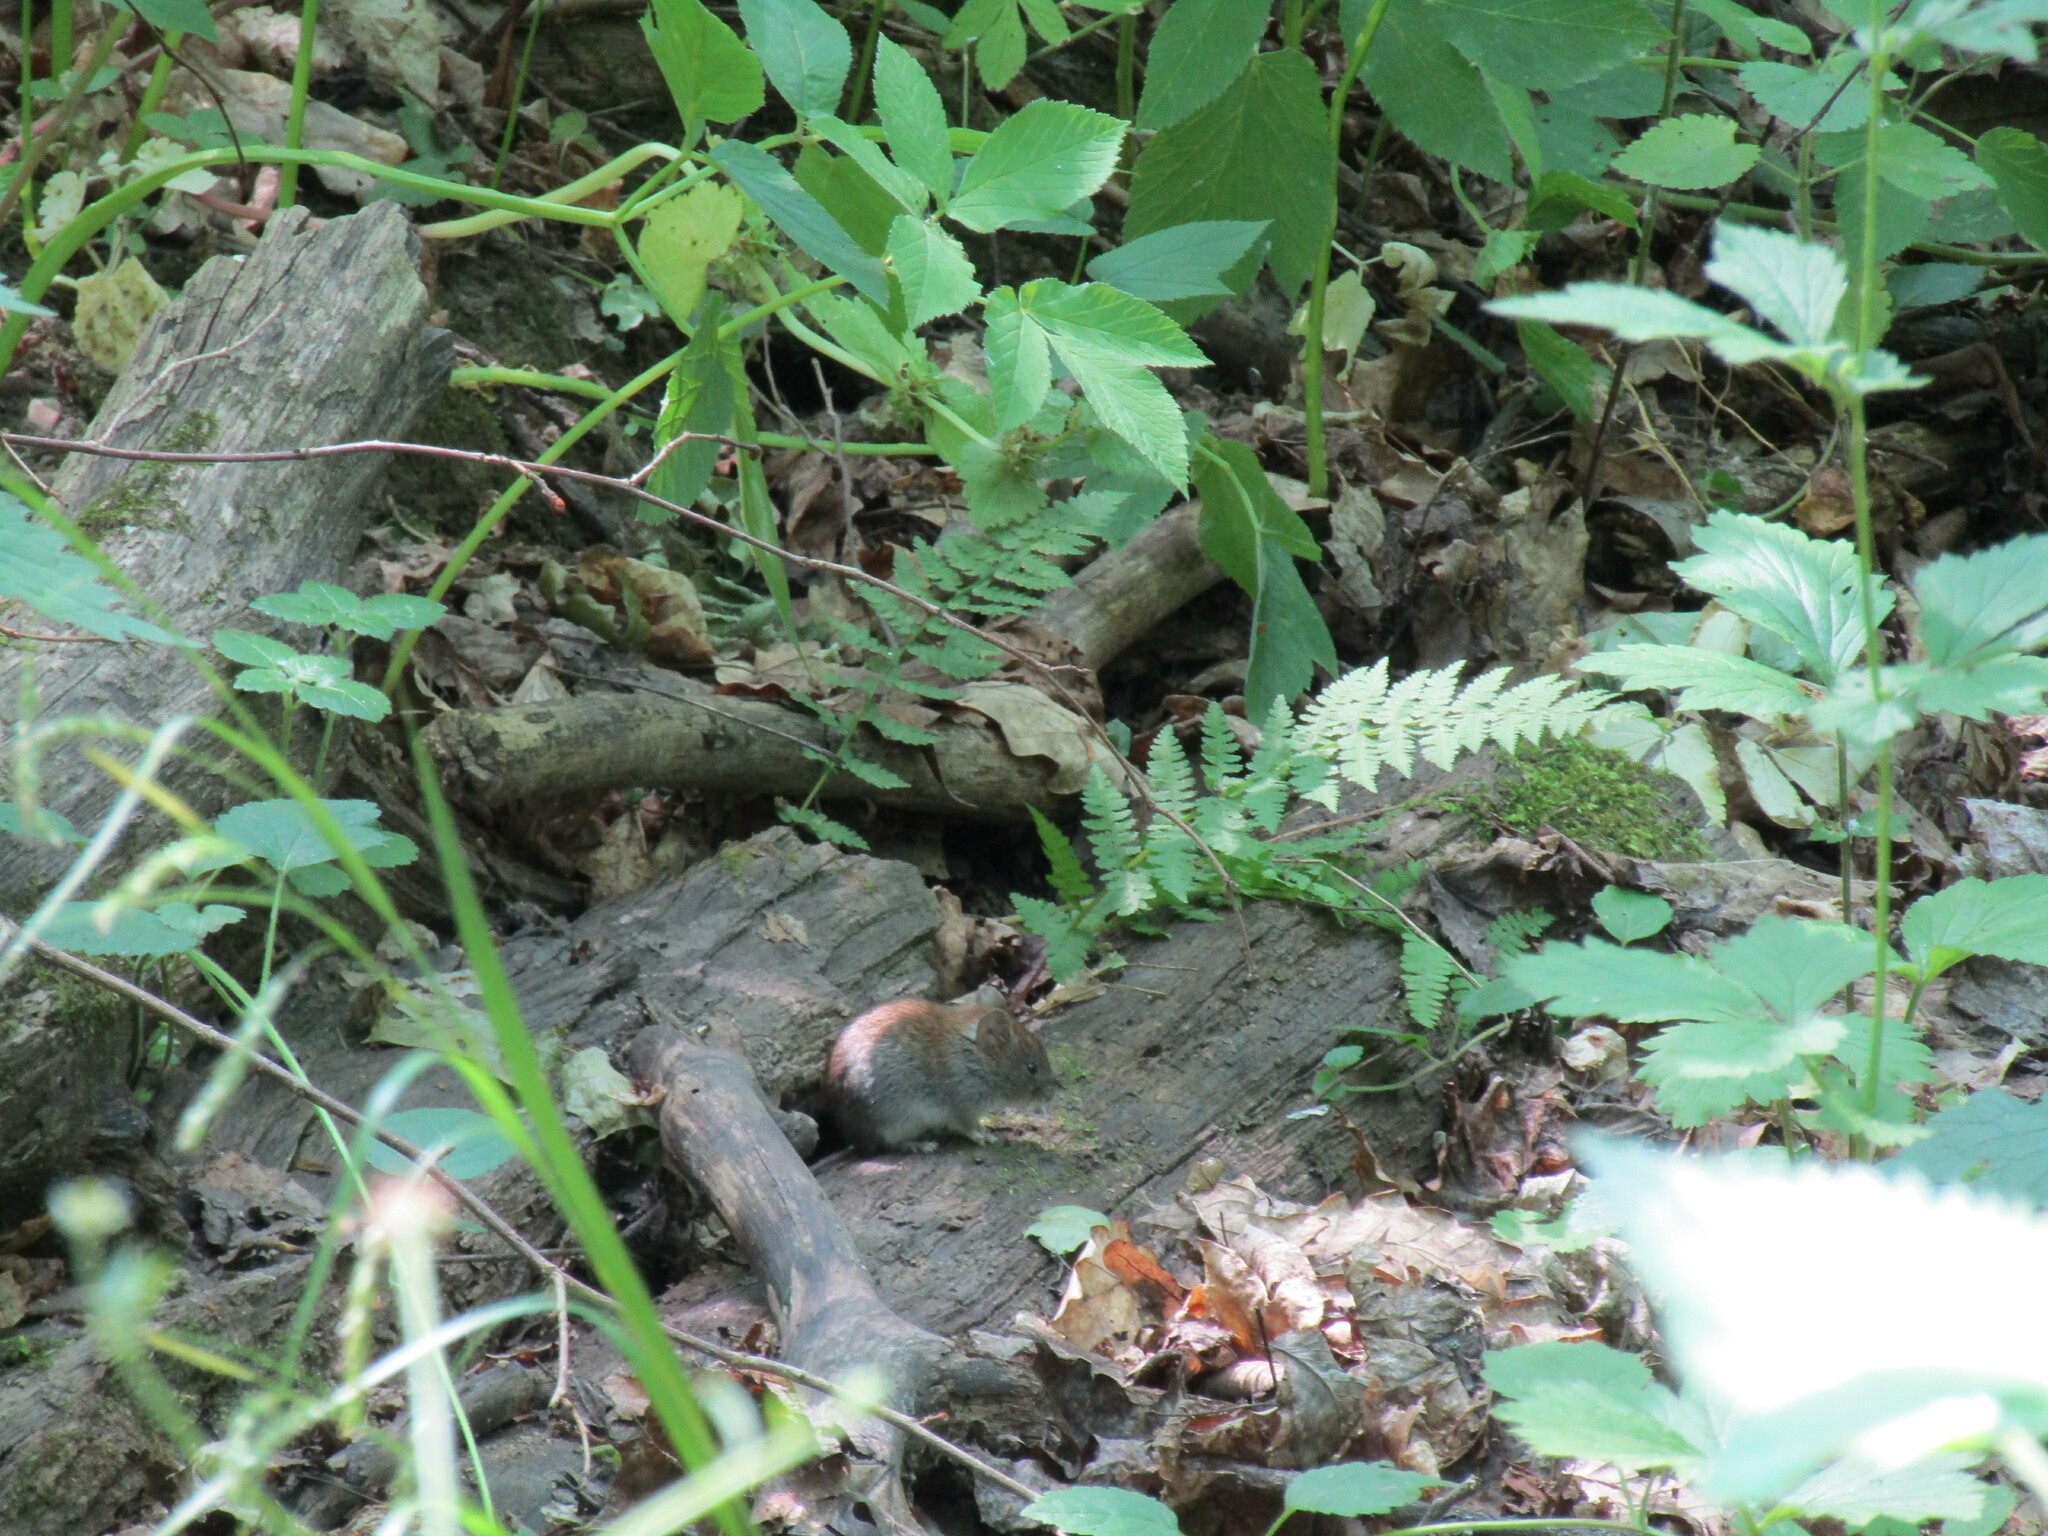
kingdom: Animalia
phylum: Chordata
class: Mammalia
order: Rodentia
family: Cricetidae
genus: Myodes
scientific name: Myodes glareolus
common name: Bank vole
